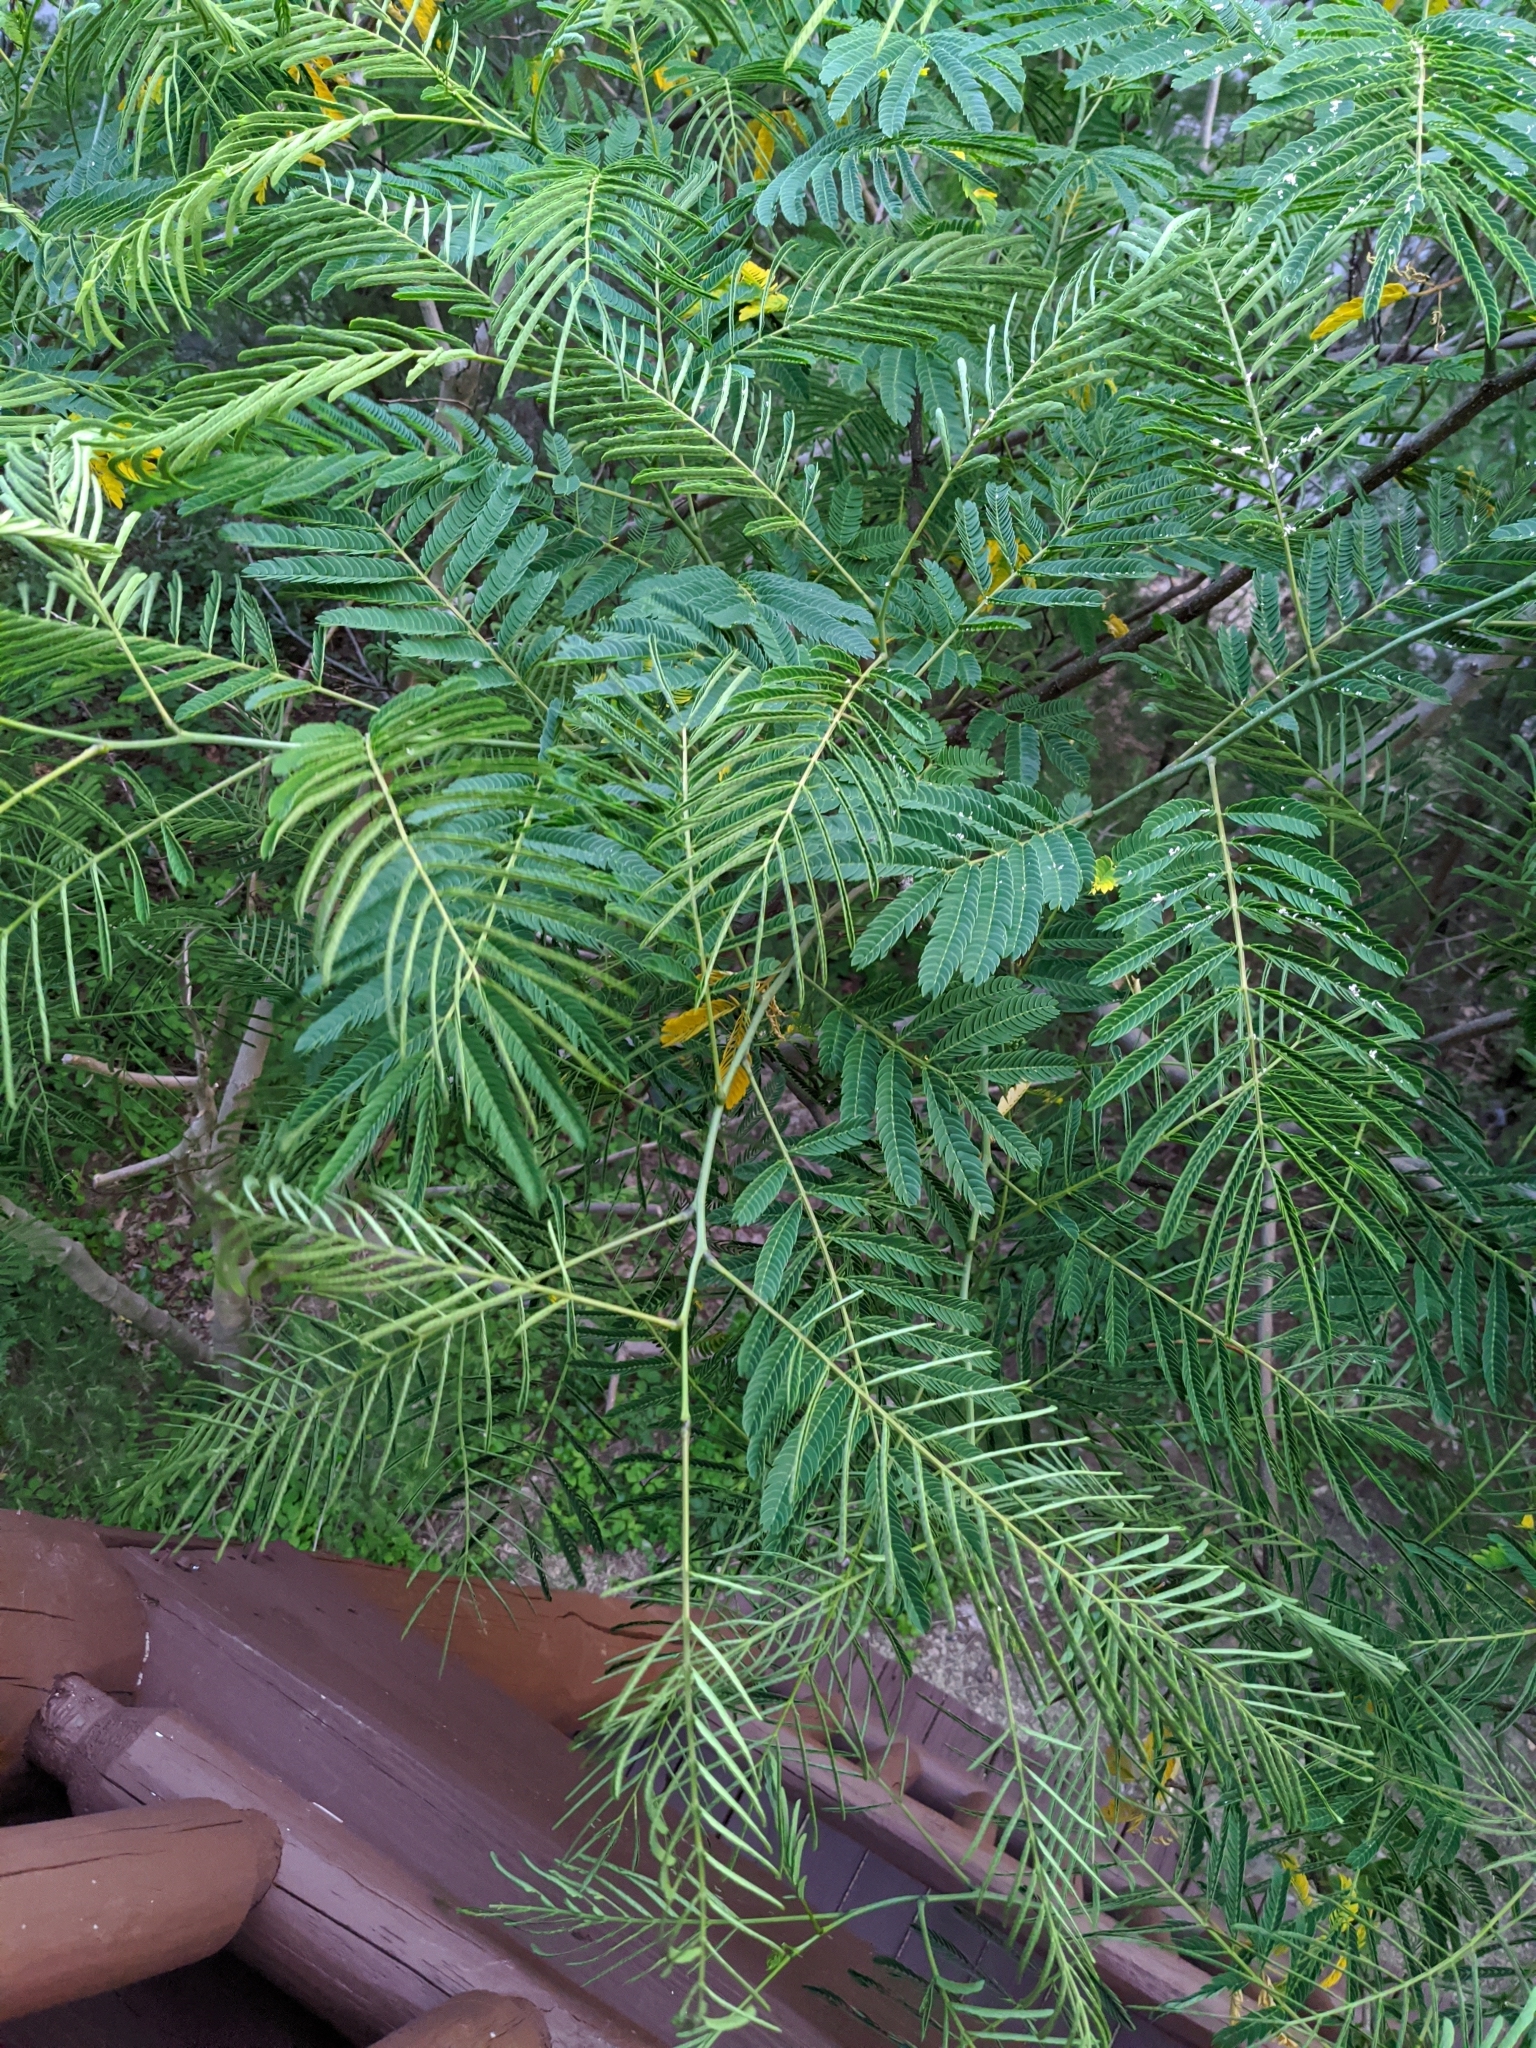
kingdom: Plantae
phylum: Tracheophyta
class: Magnoliopsida
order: Fabales
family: Fabaceae
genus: Albizia
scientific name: Albizia julibrissin
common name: Silktree
